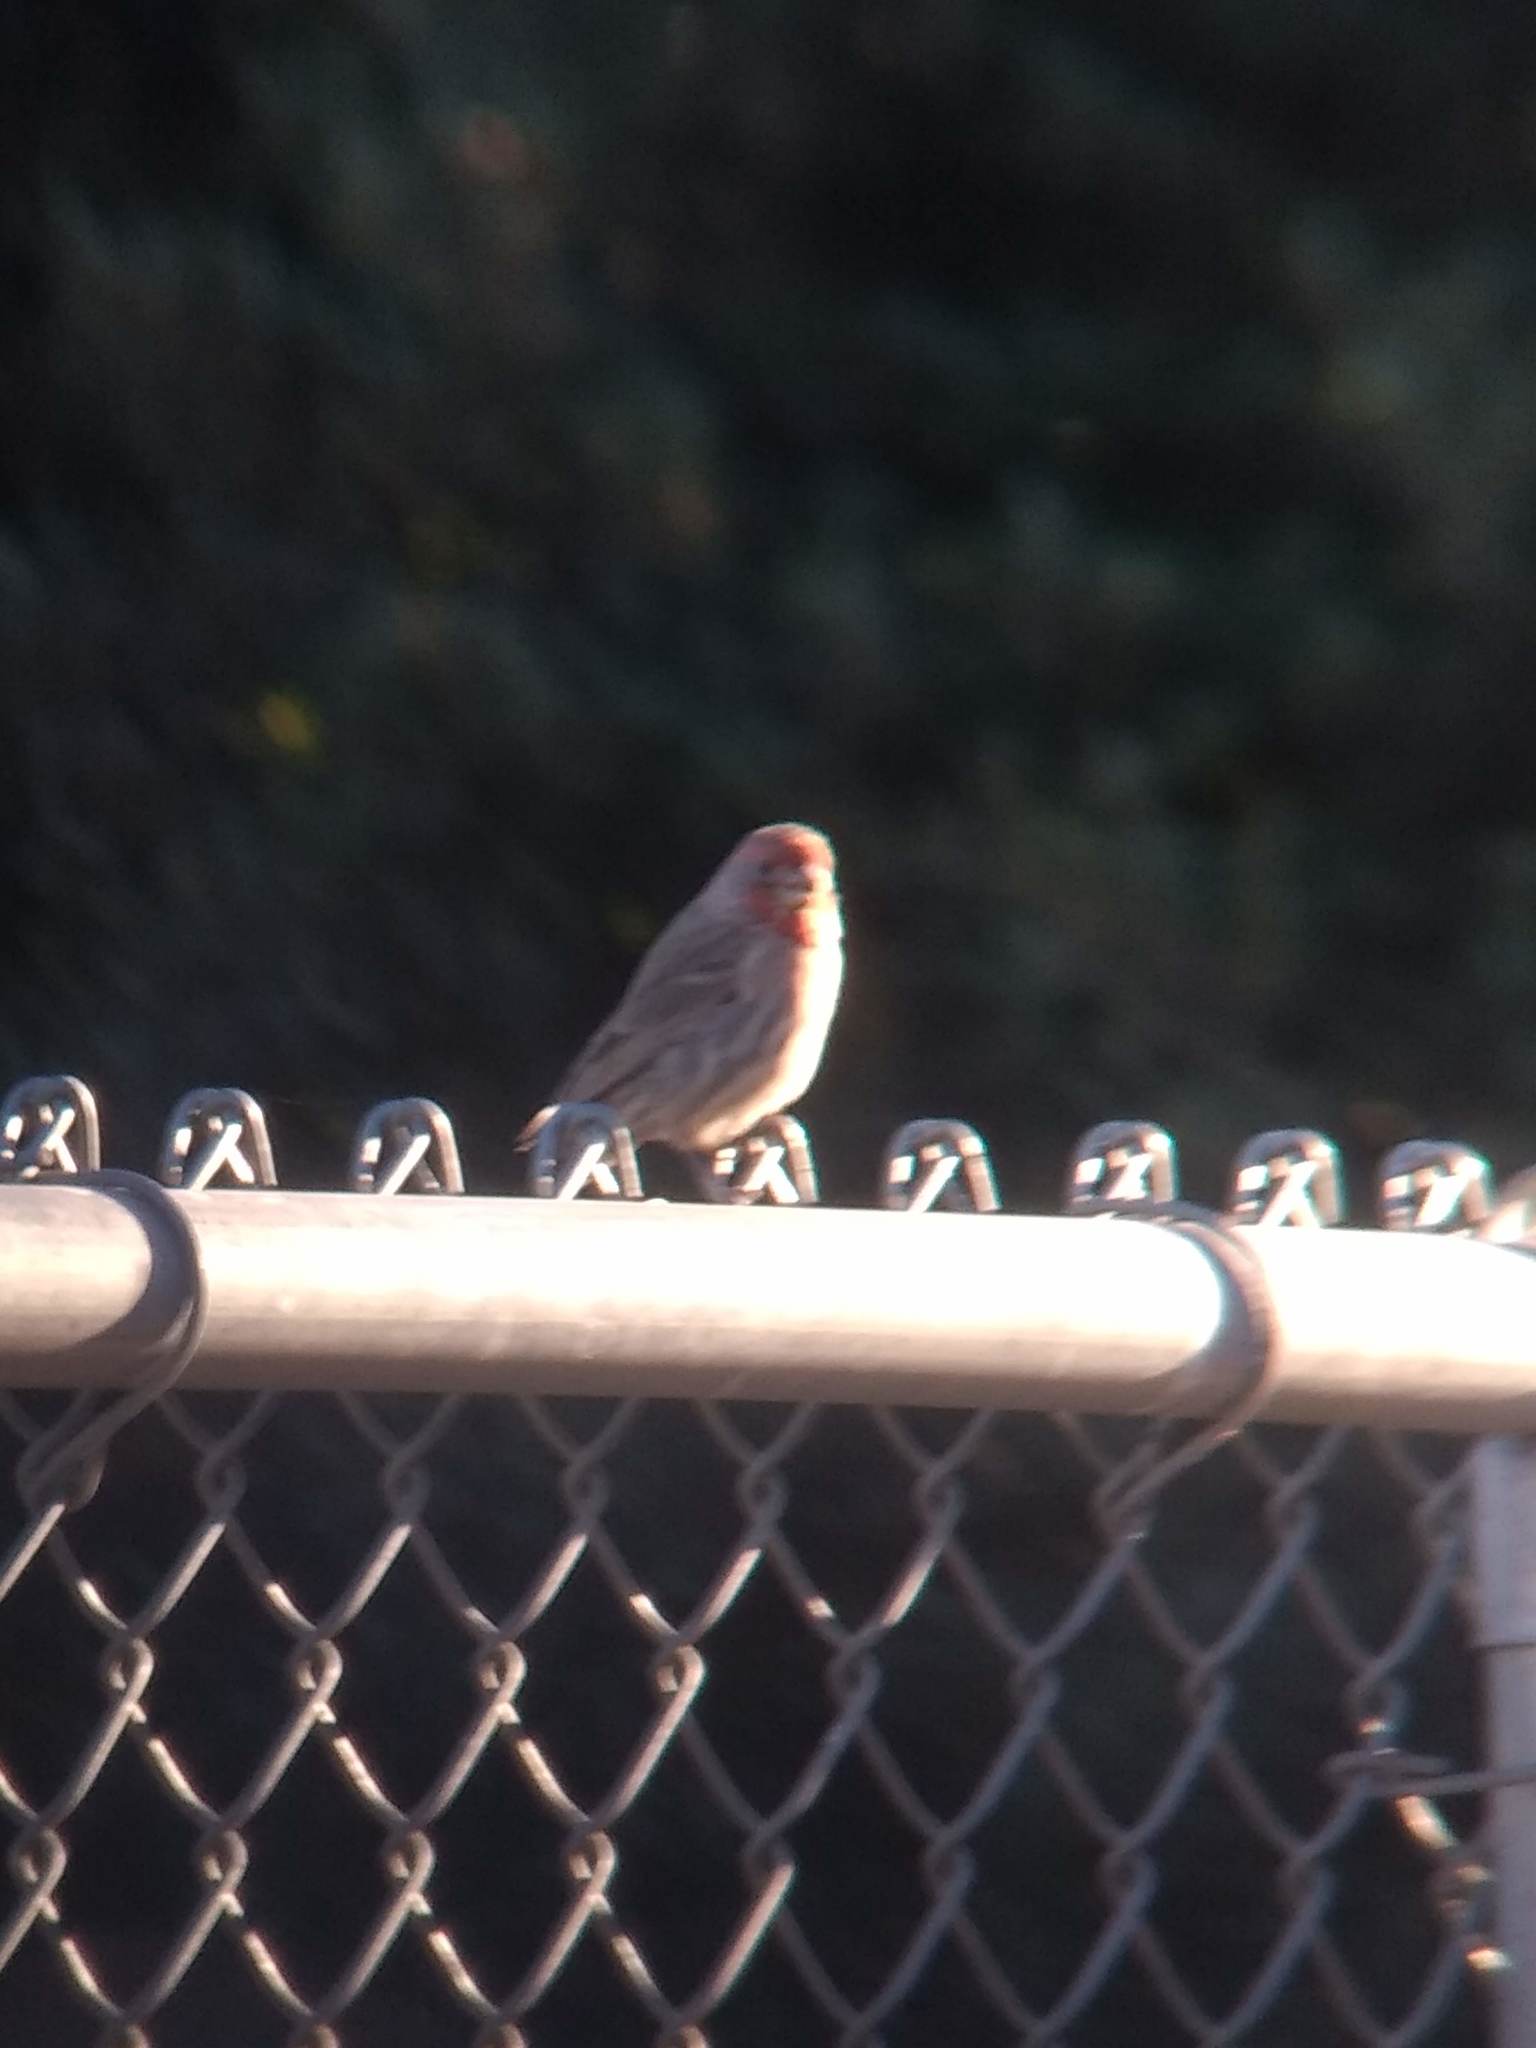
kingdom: Animalia
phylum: Chordata
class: Aves
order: Passeriformes
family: Fringillidae
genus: Haemorhous
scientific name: Haemorhous mexicanus
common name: House finch
